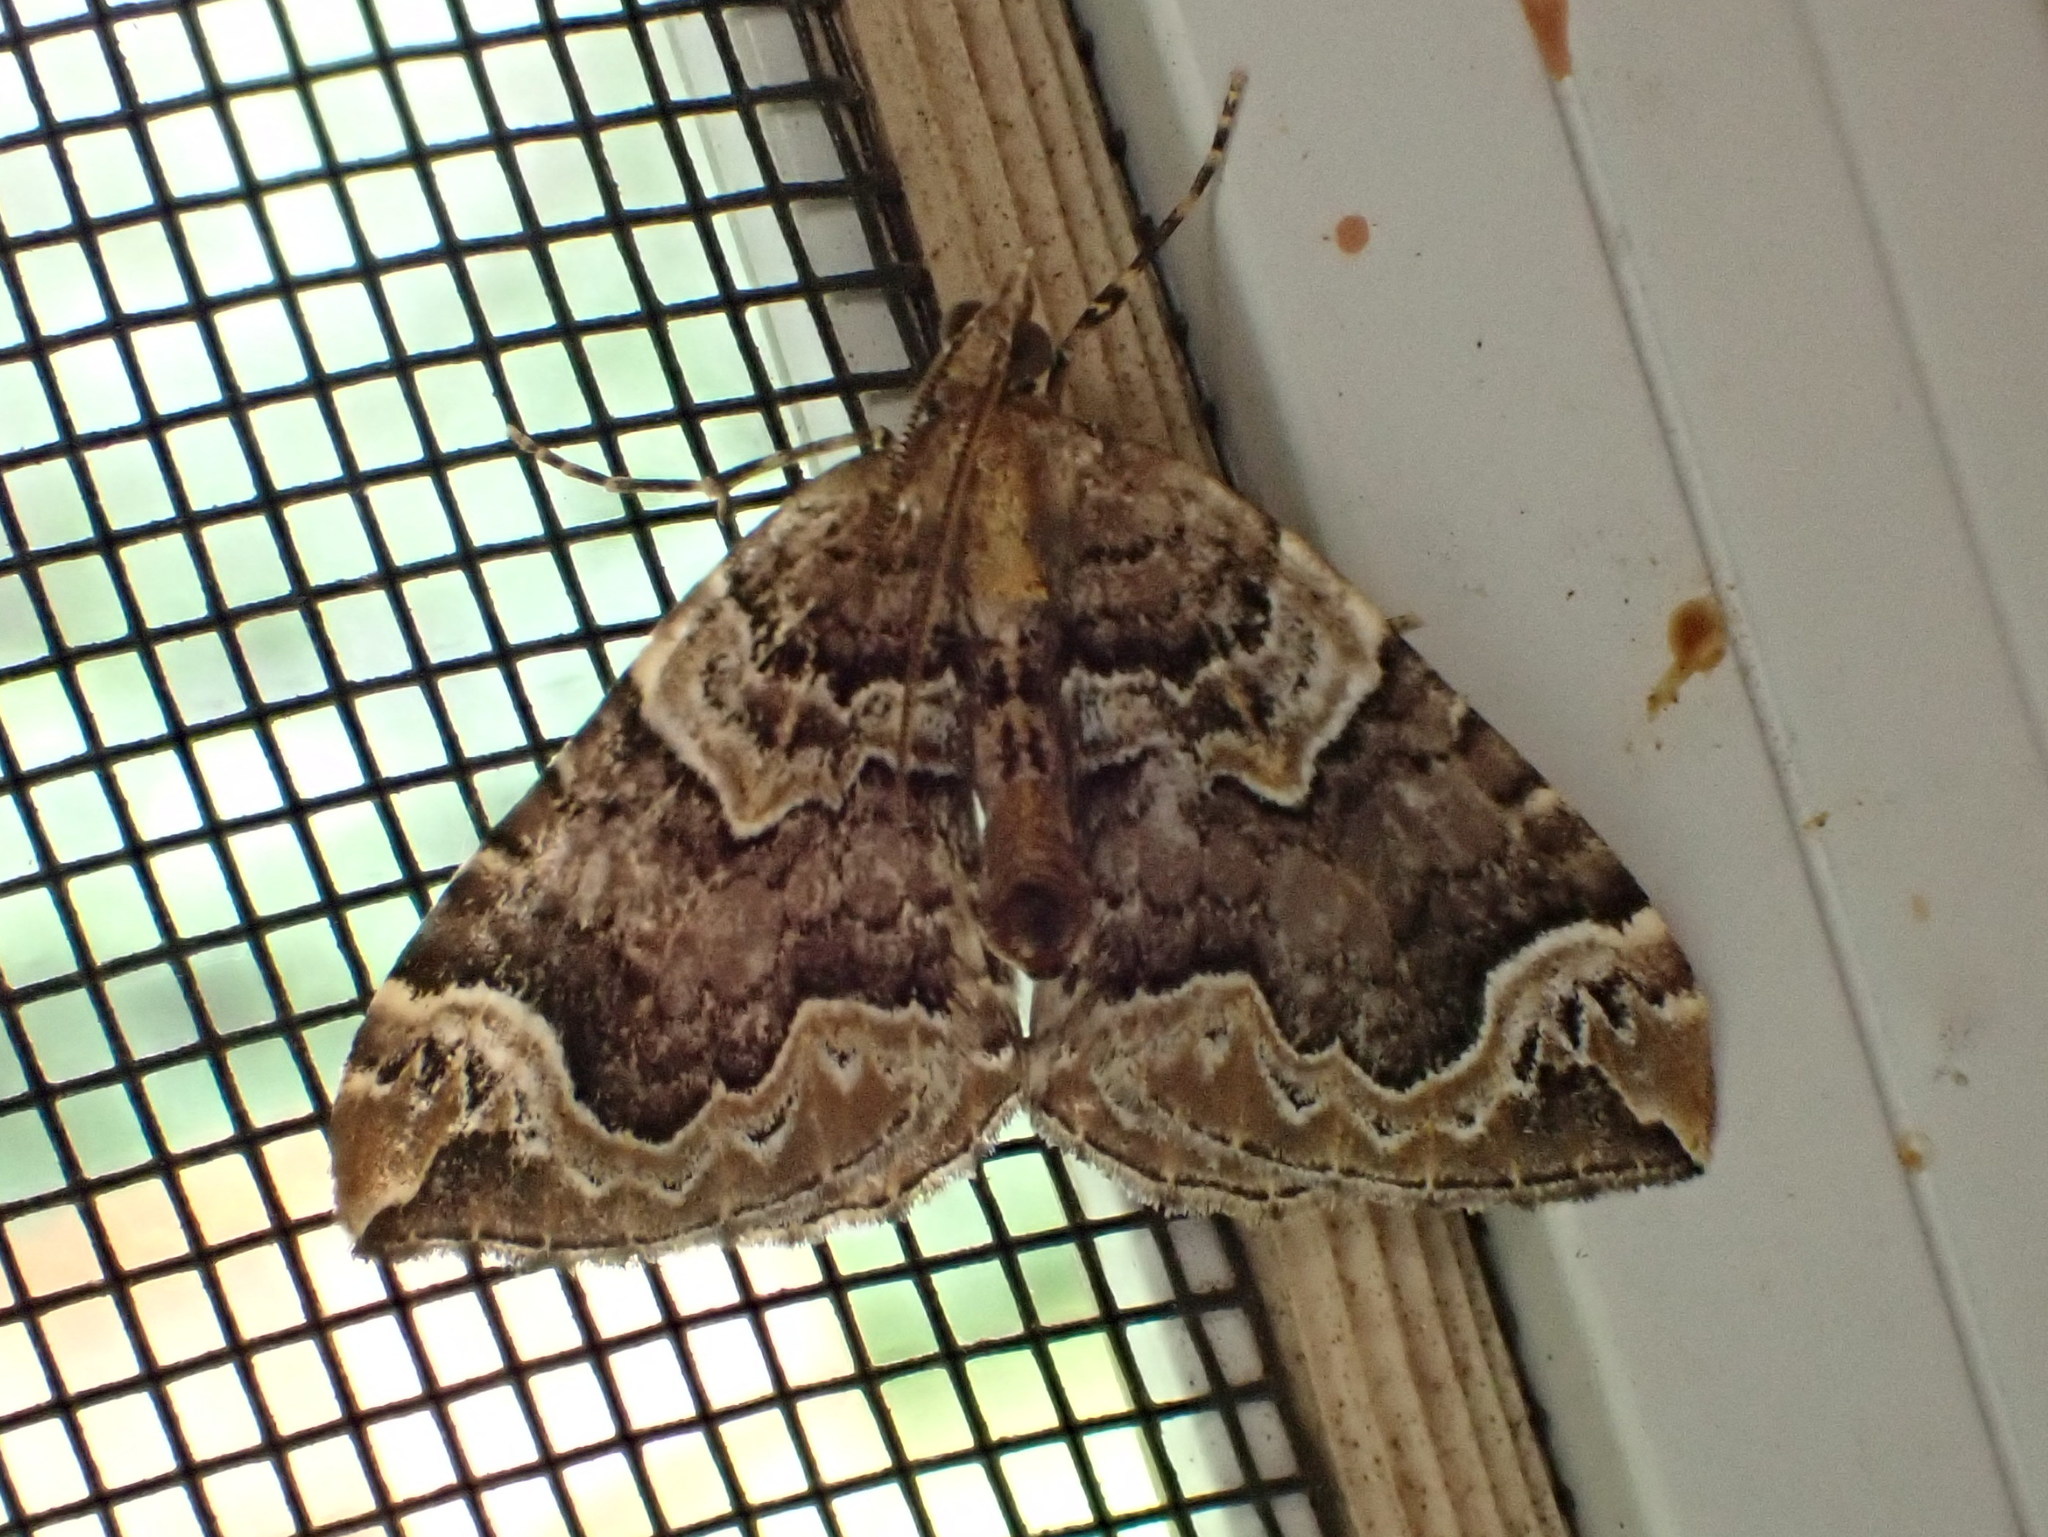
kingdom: Animalia
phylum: Arthropoda
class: Insecta
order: Lepidoptera
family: Geometridae
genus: Eulithis
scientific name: Eulithis serrataria
